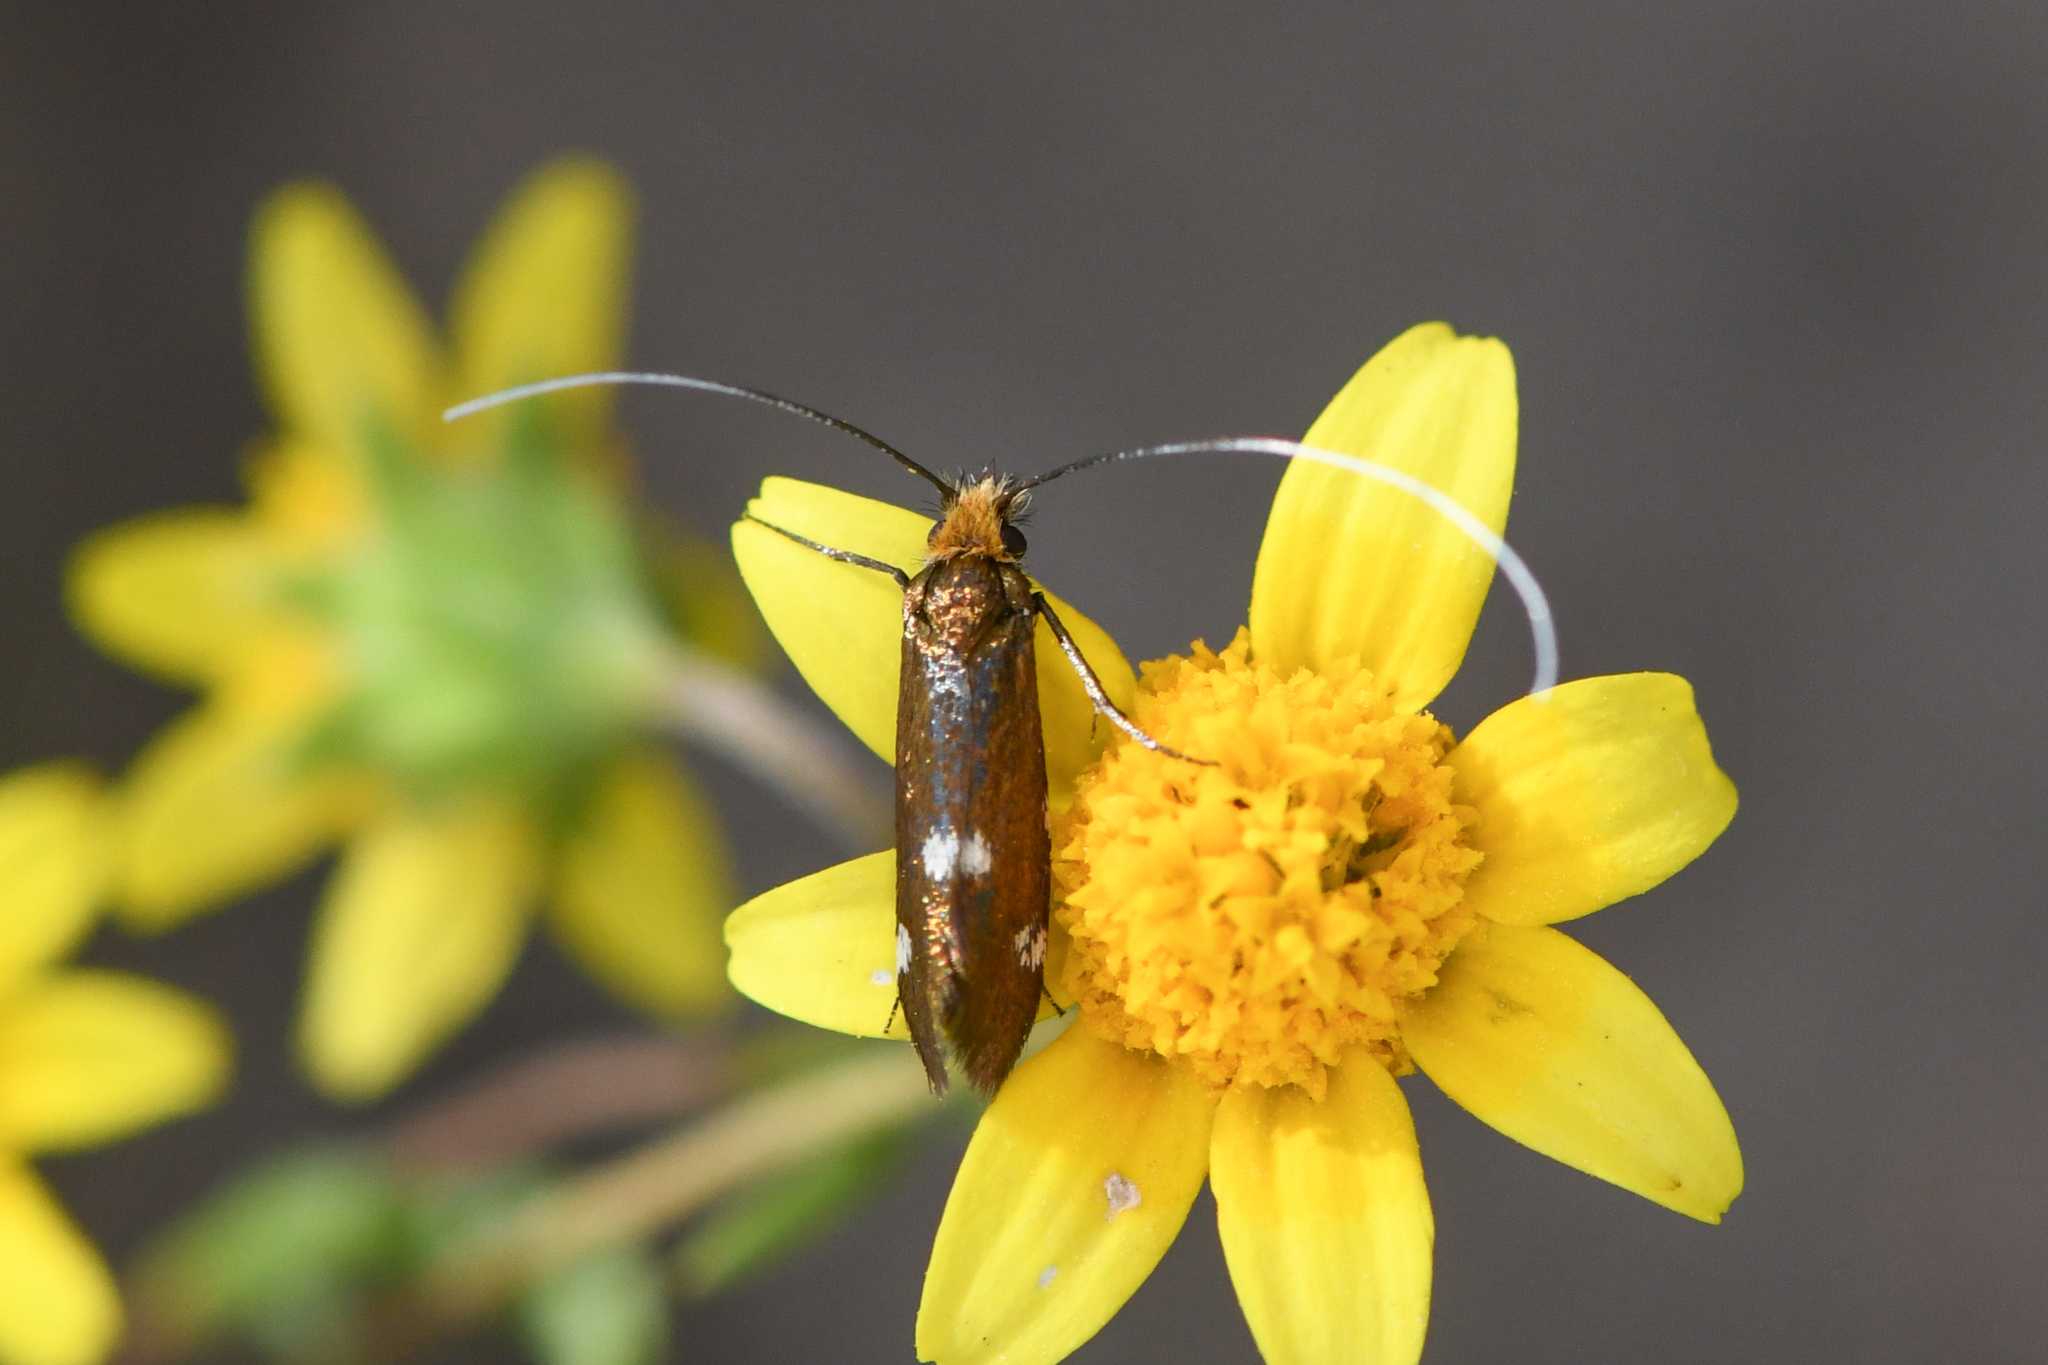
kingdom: Animalia
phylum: Arthropoda
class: Insecta
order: Lepidoptera
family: Adelidae
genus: Adela
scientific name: Adela flammeusella
